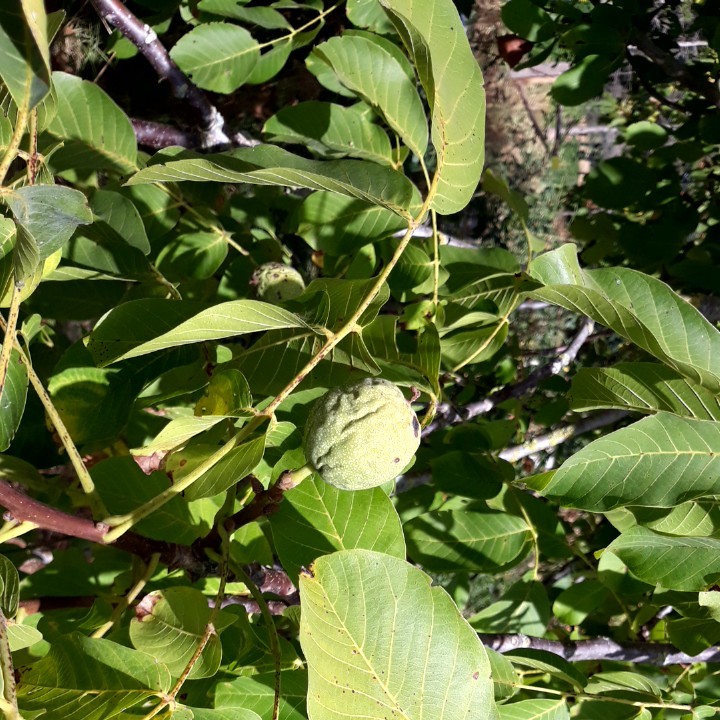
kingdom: Plantae
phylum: Tracheophyta
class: Magnoliopsida
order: Fagales
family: Juglandaceae
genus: Juglans
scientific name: Juglans regia
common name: Walnut
